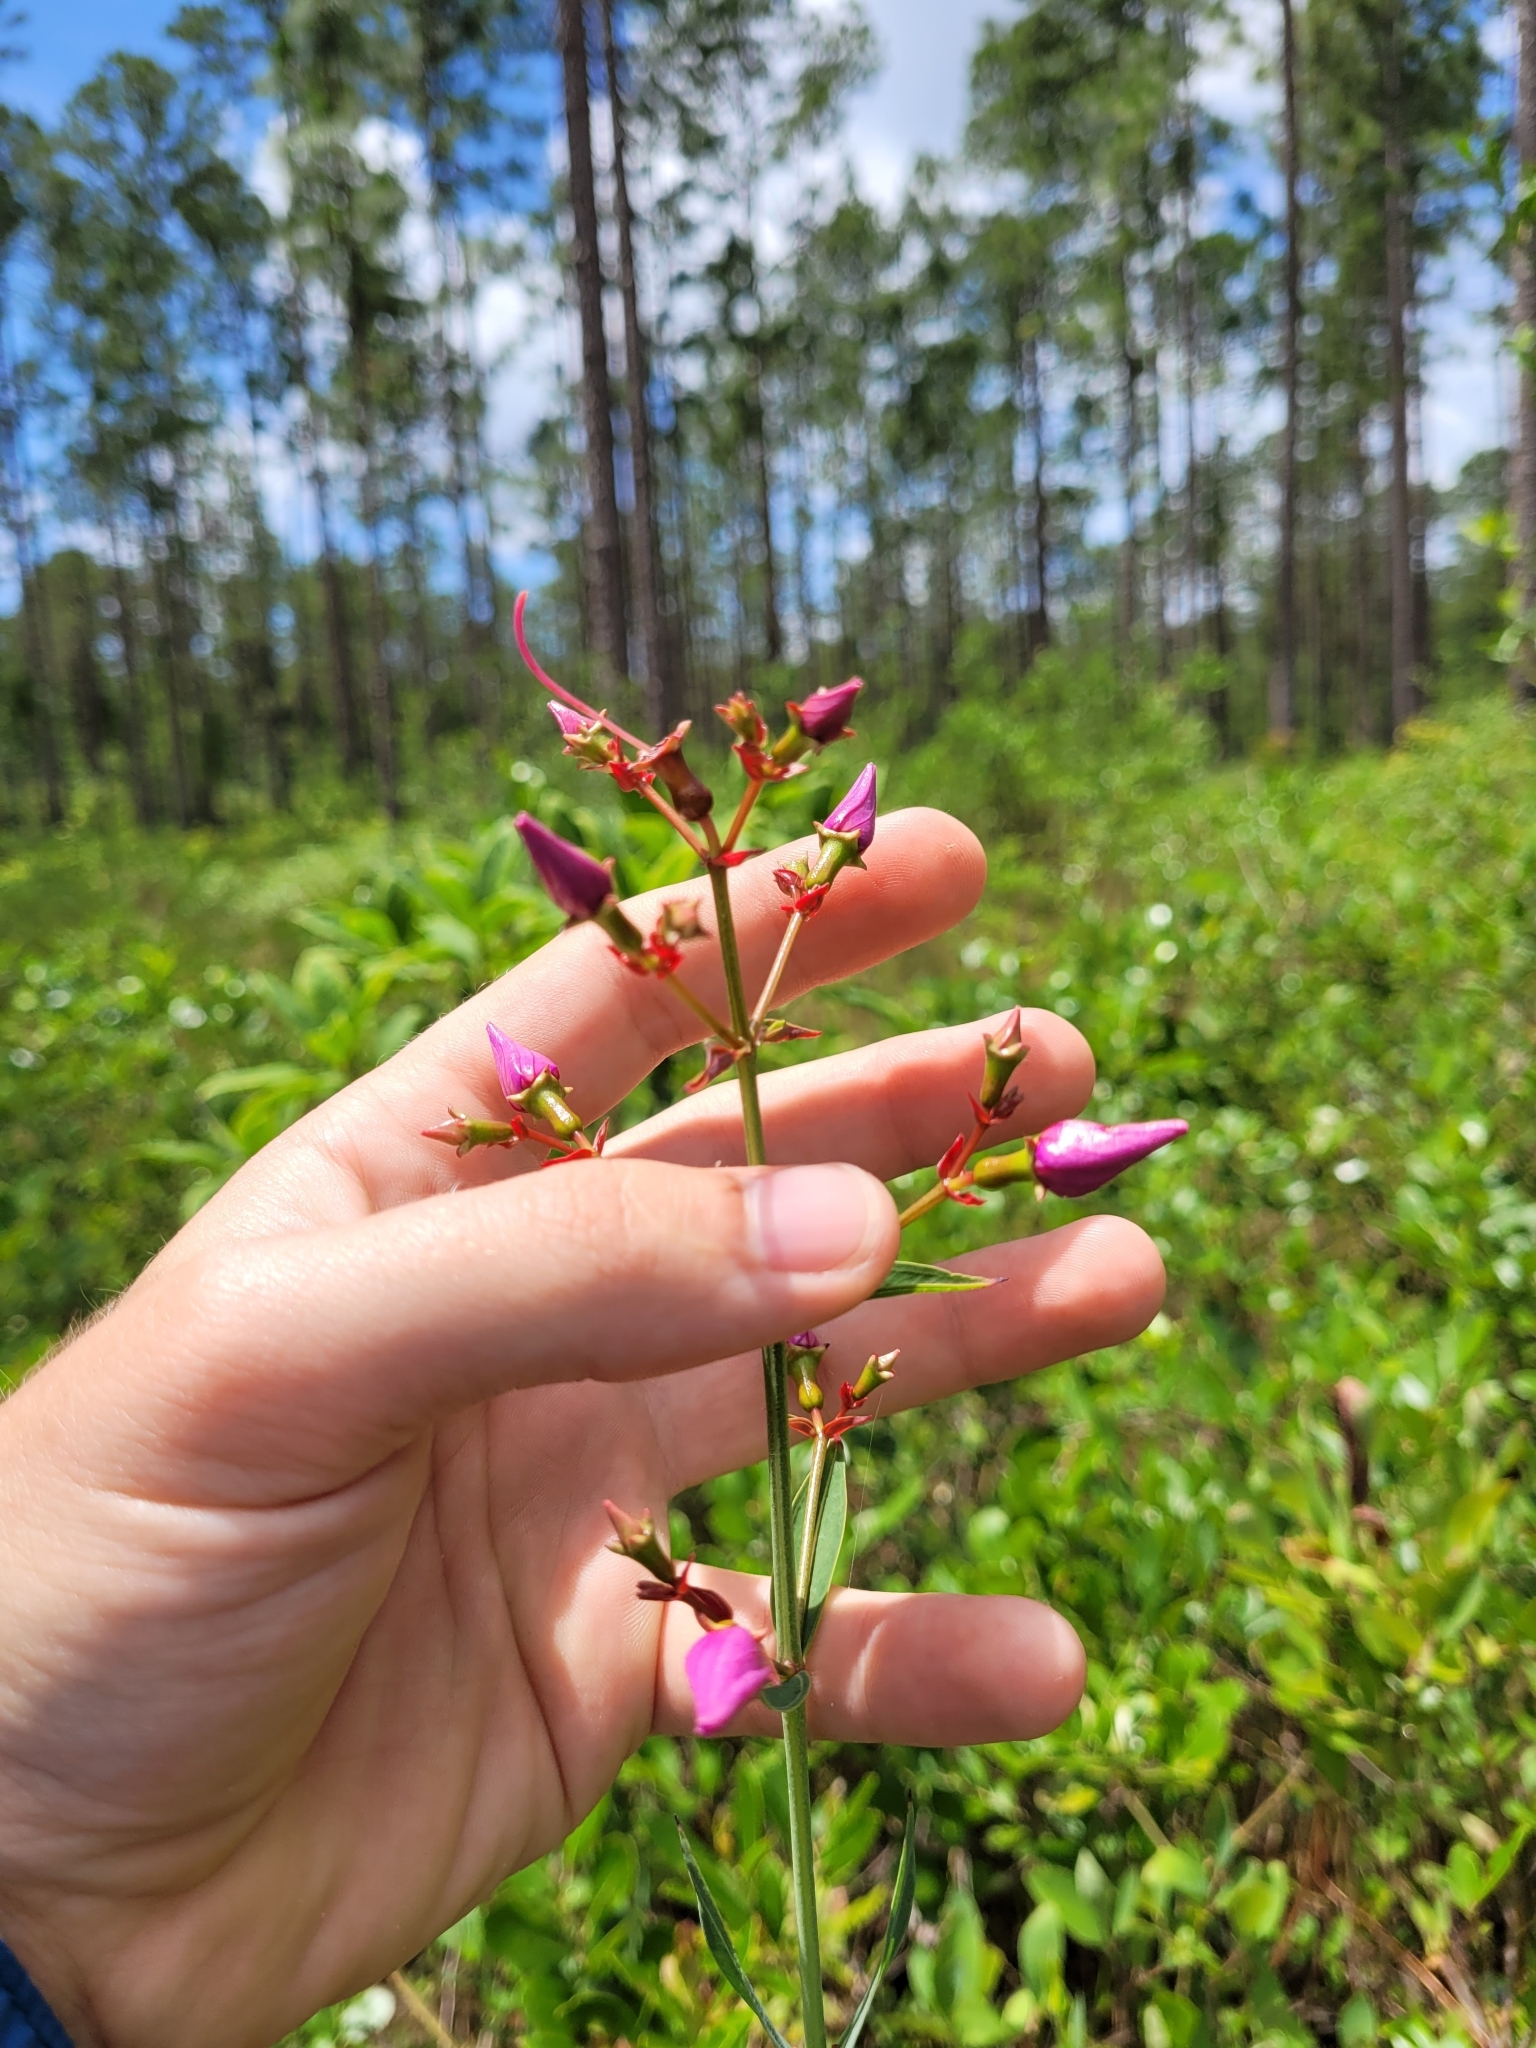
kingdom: Plantae
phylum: Tracheophyta
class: Magnoliopsida
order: Myrtales
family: Melastomataceae
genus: Rhexia
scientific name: Rhexia alifanus
